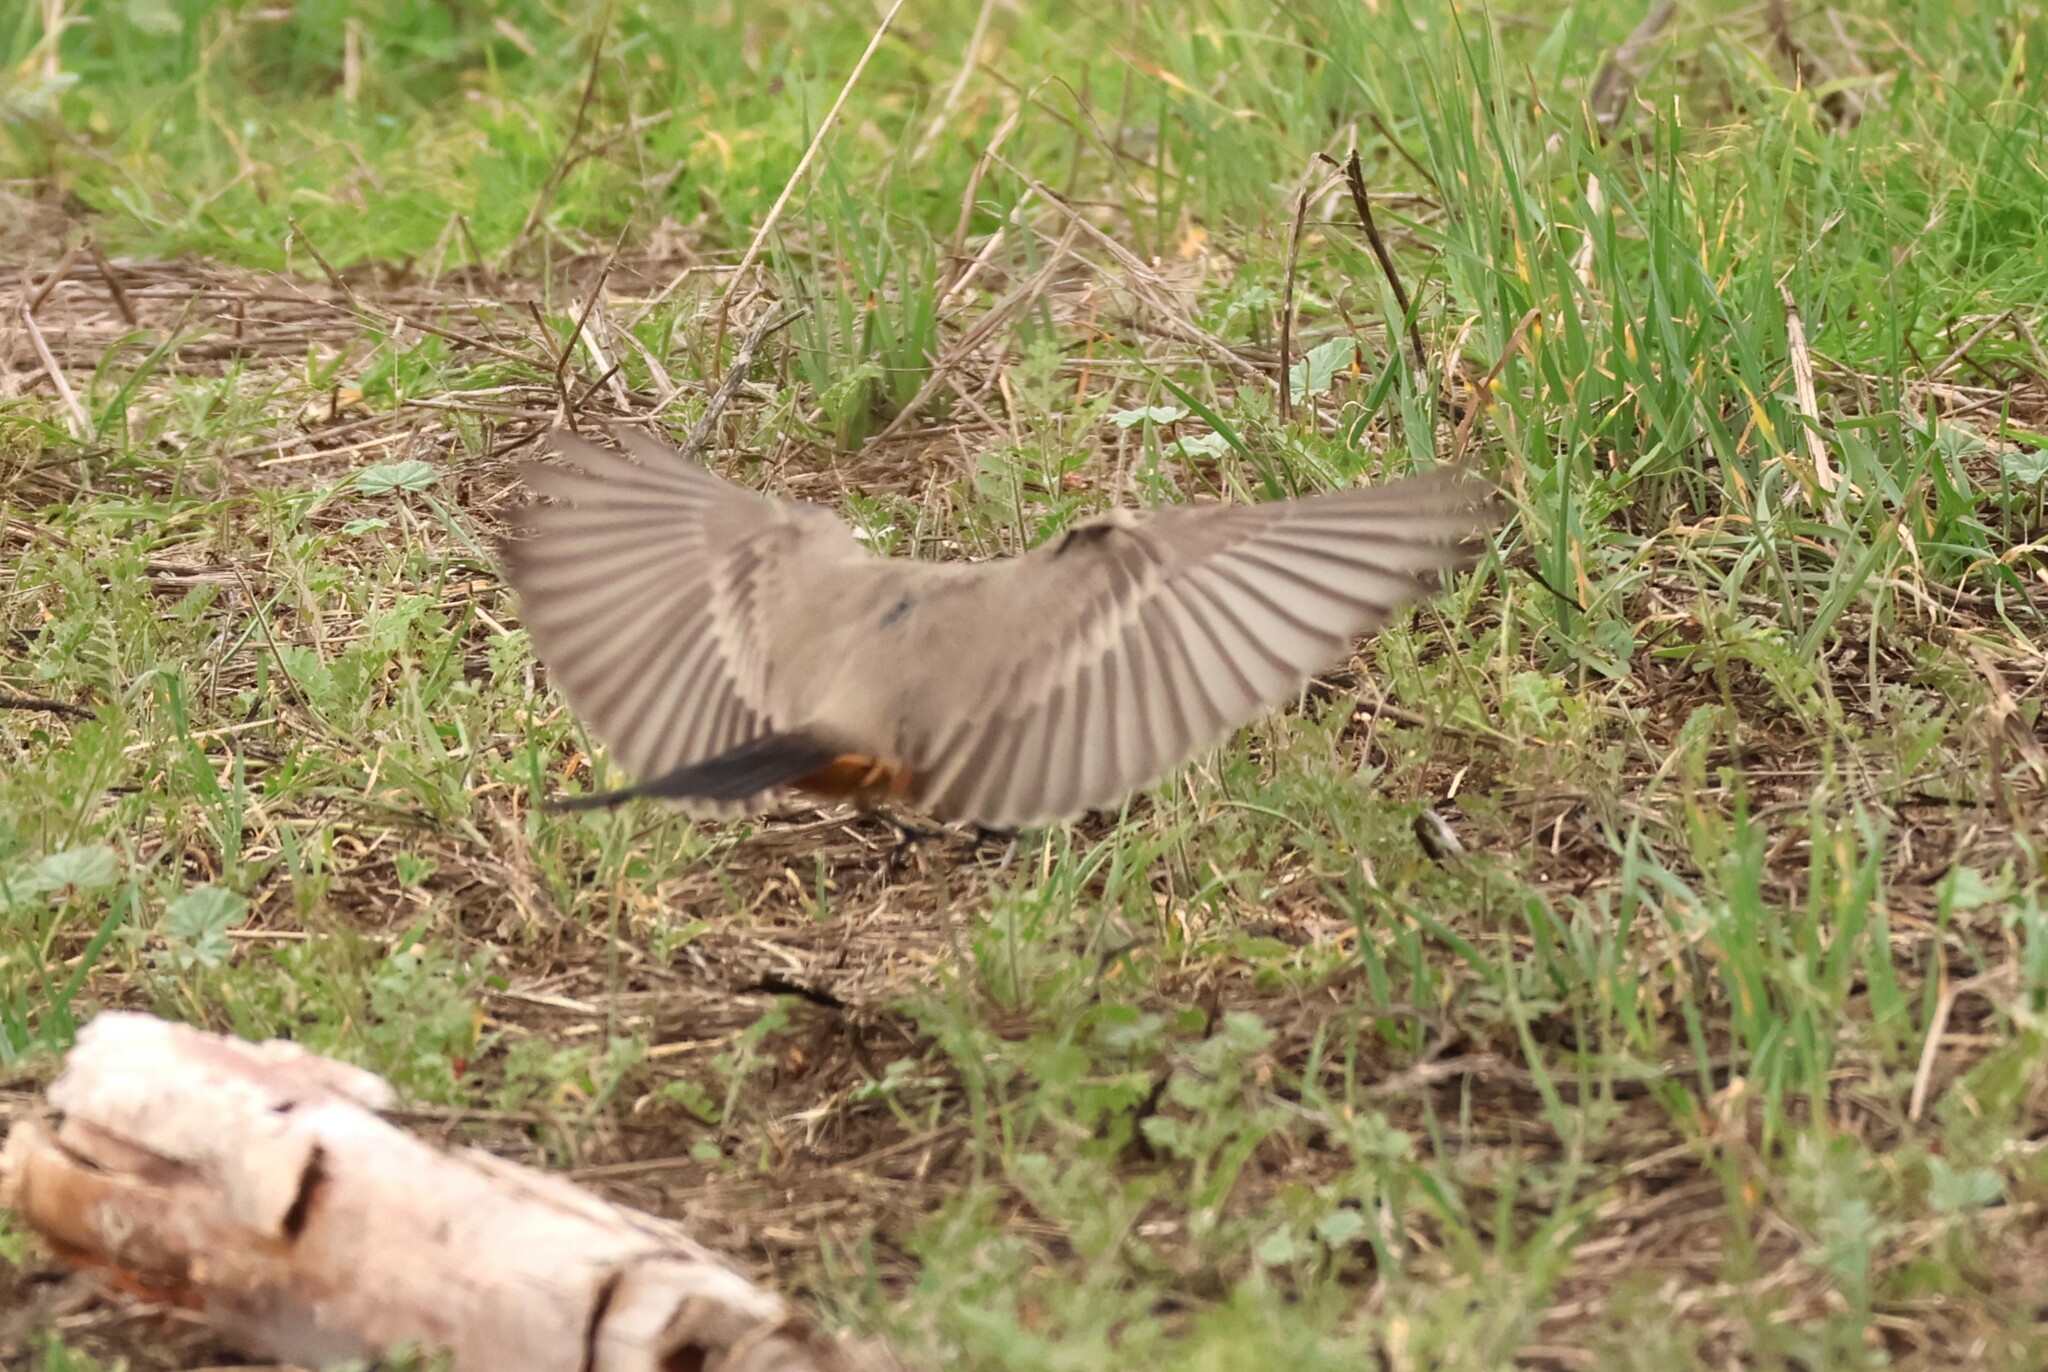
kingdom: Animalia
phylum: Chordata
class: Aves
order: Passeriformes
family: Tyrannidae
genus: Sayornis
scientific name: Sayornis saya
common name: Say's phoebe
